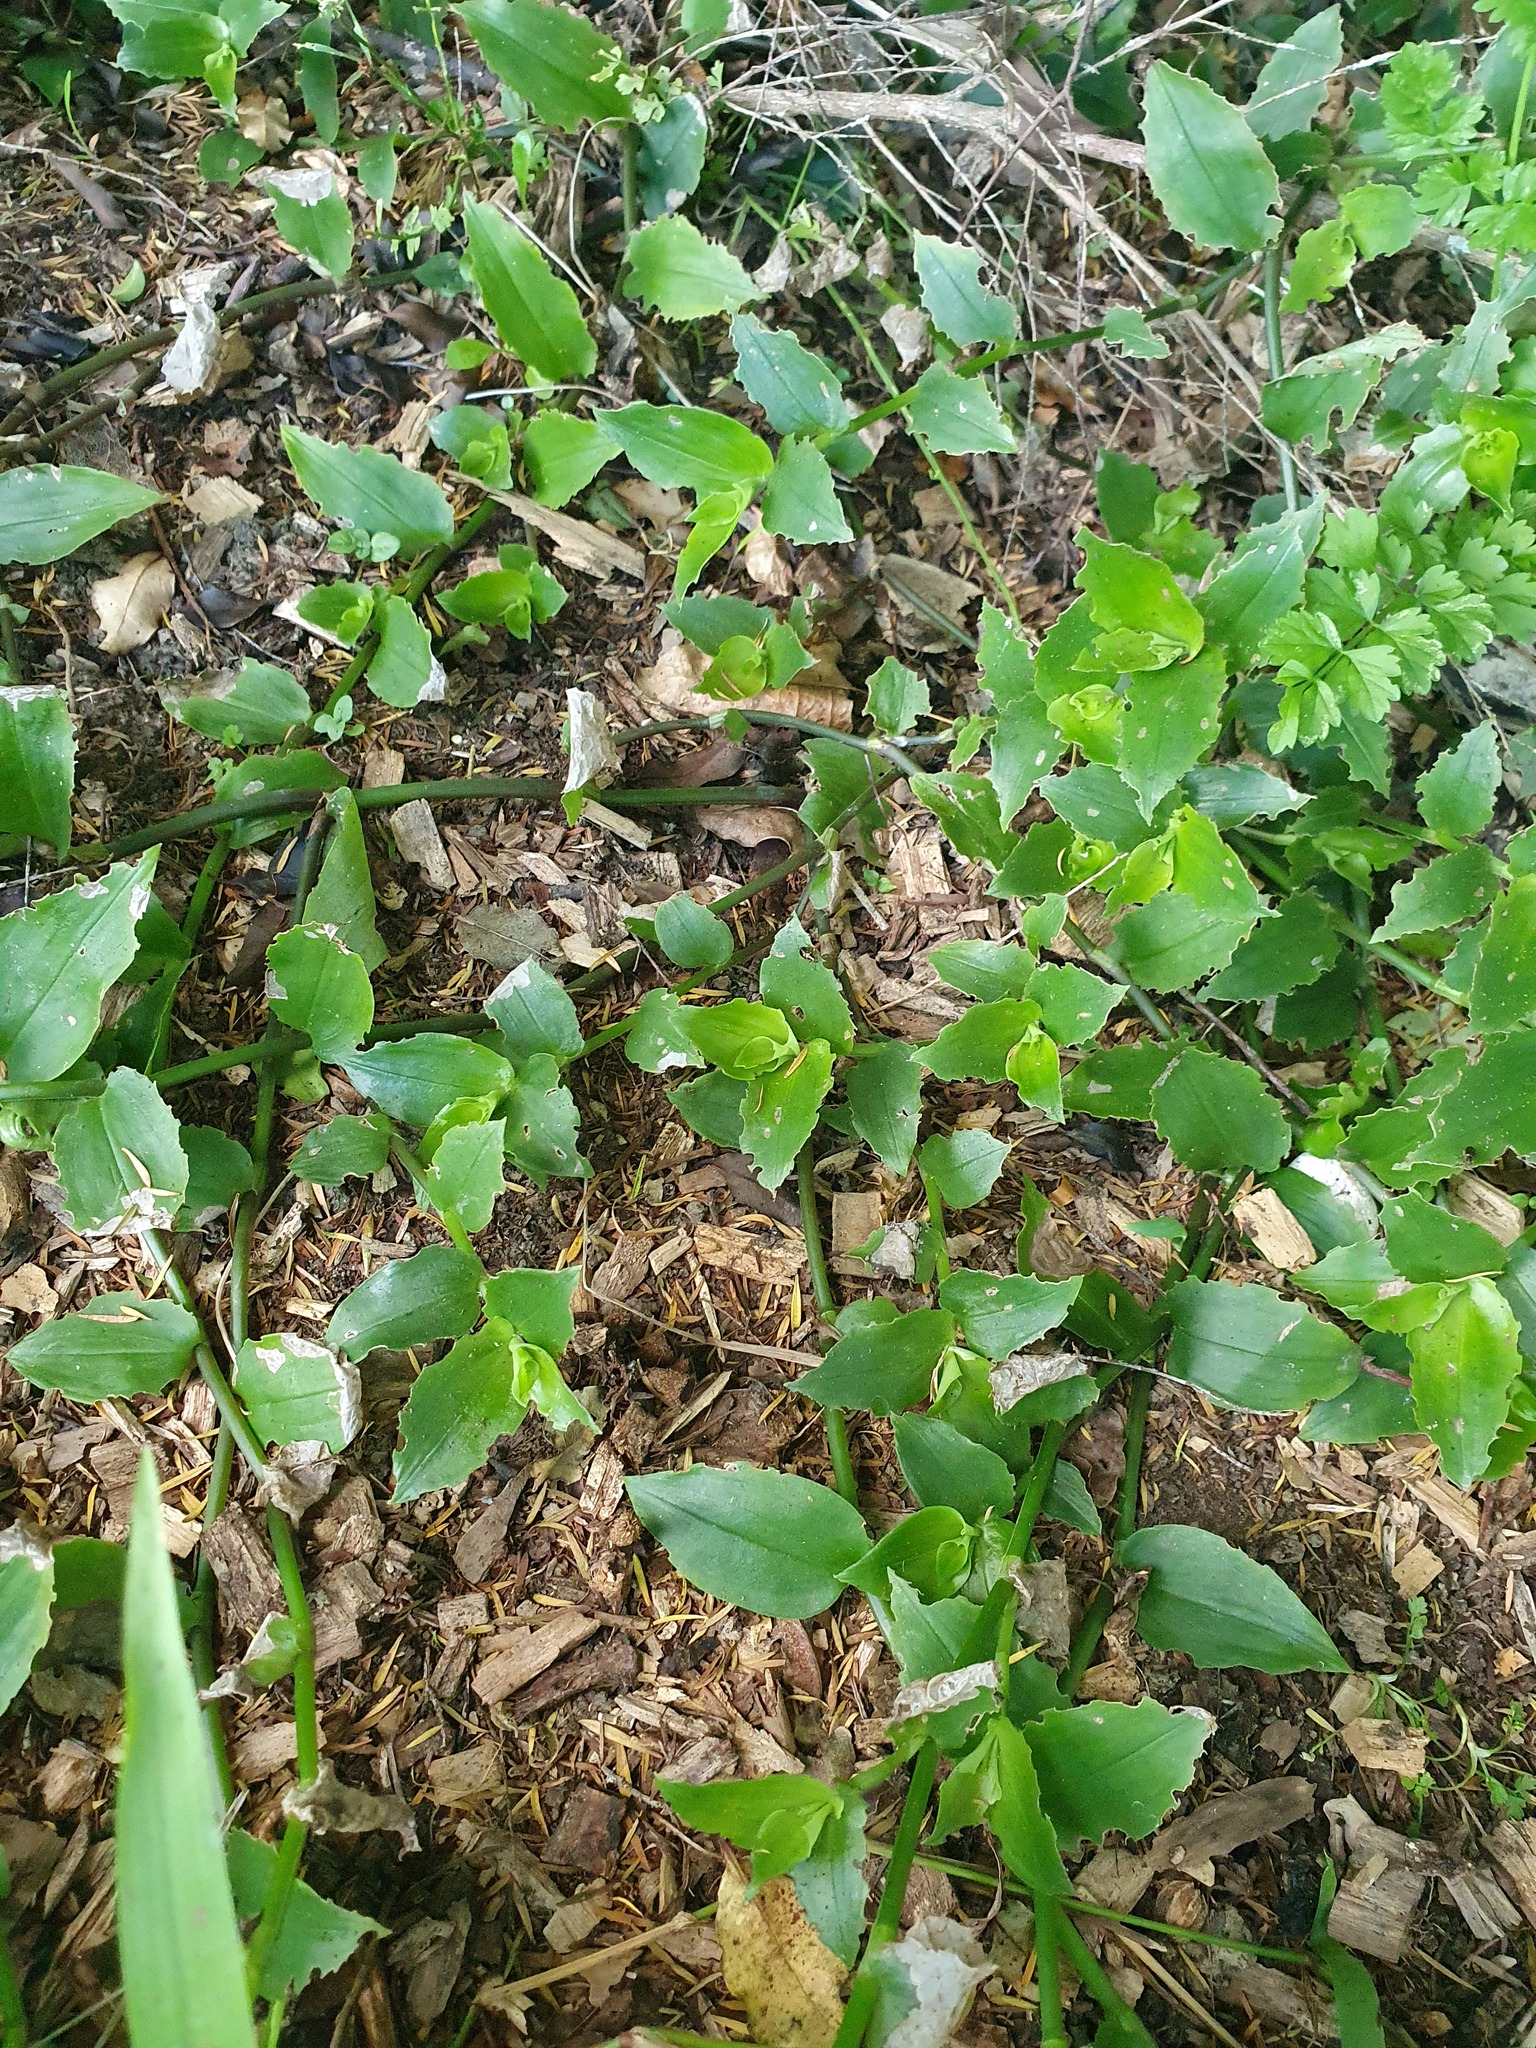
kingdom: Plantae
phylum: Tracheophyta
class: Liliopsida
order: Commelinales
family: Commelinaceae
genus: Tradescantia
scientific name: Tradescantia fluminensis
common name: Wandering-jew
